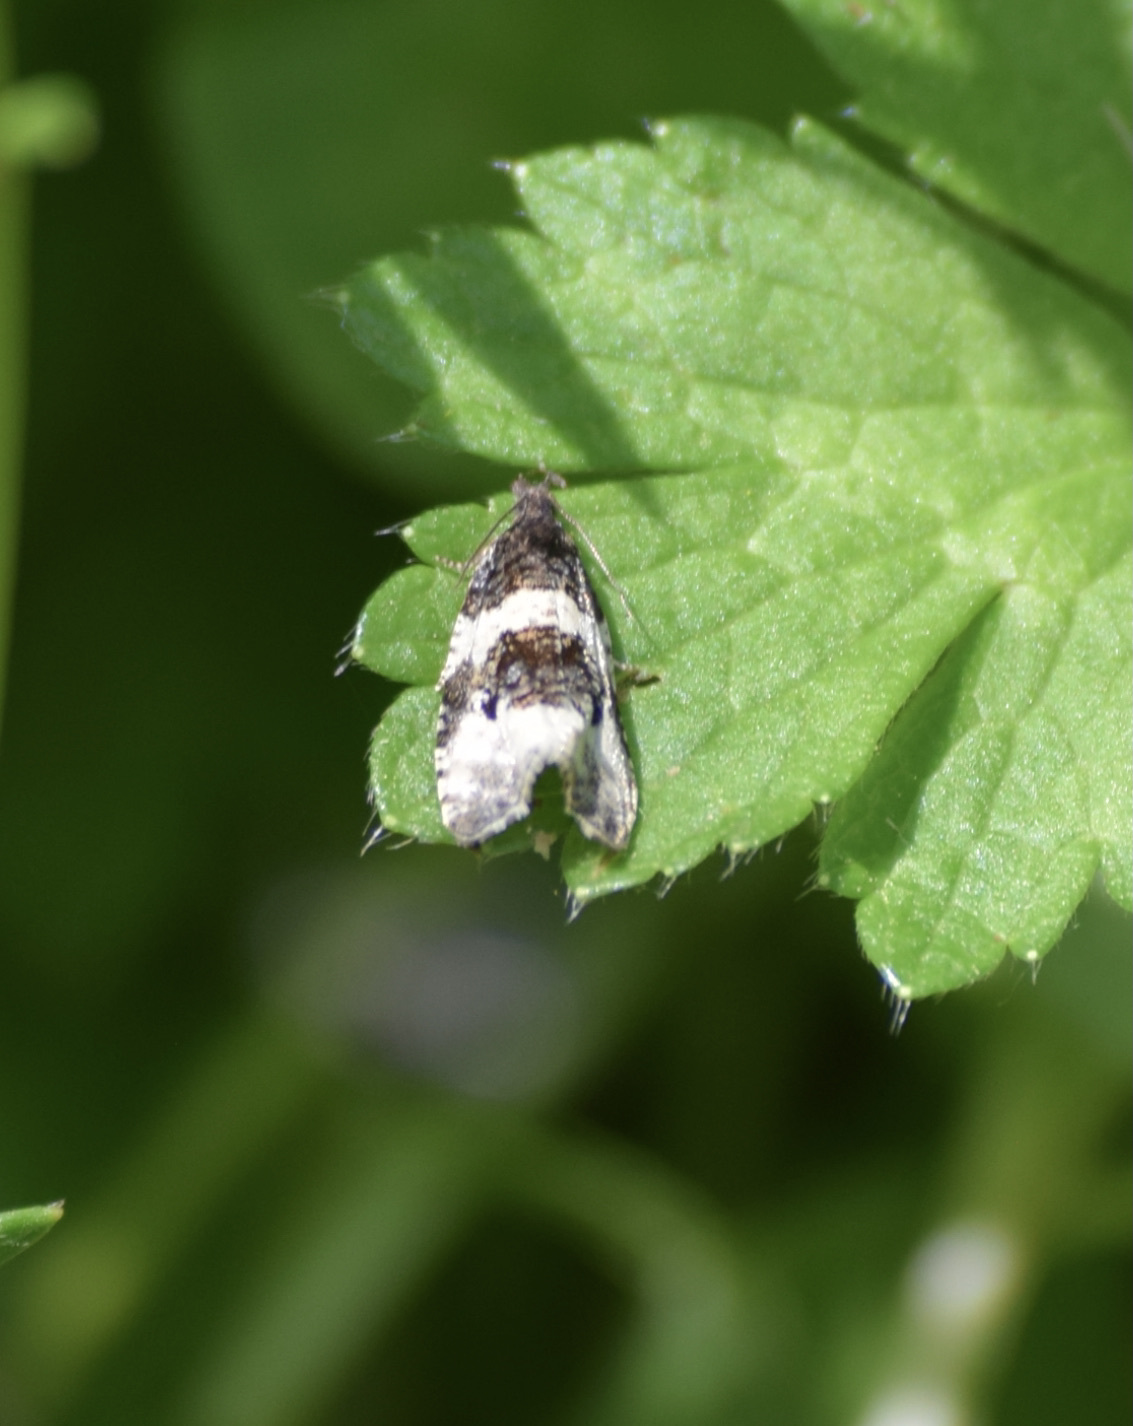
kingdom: Animalia
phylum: Arthropoda
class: Insecta
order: Lepidoptera
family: Tortricidae
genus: Olethreutes
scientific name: Olethreutes bipartitana
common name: Divided olethreutes moth
